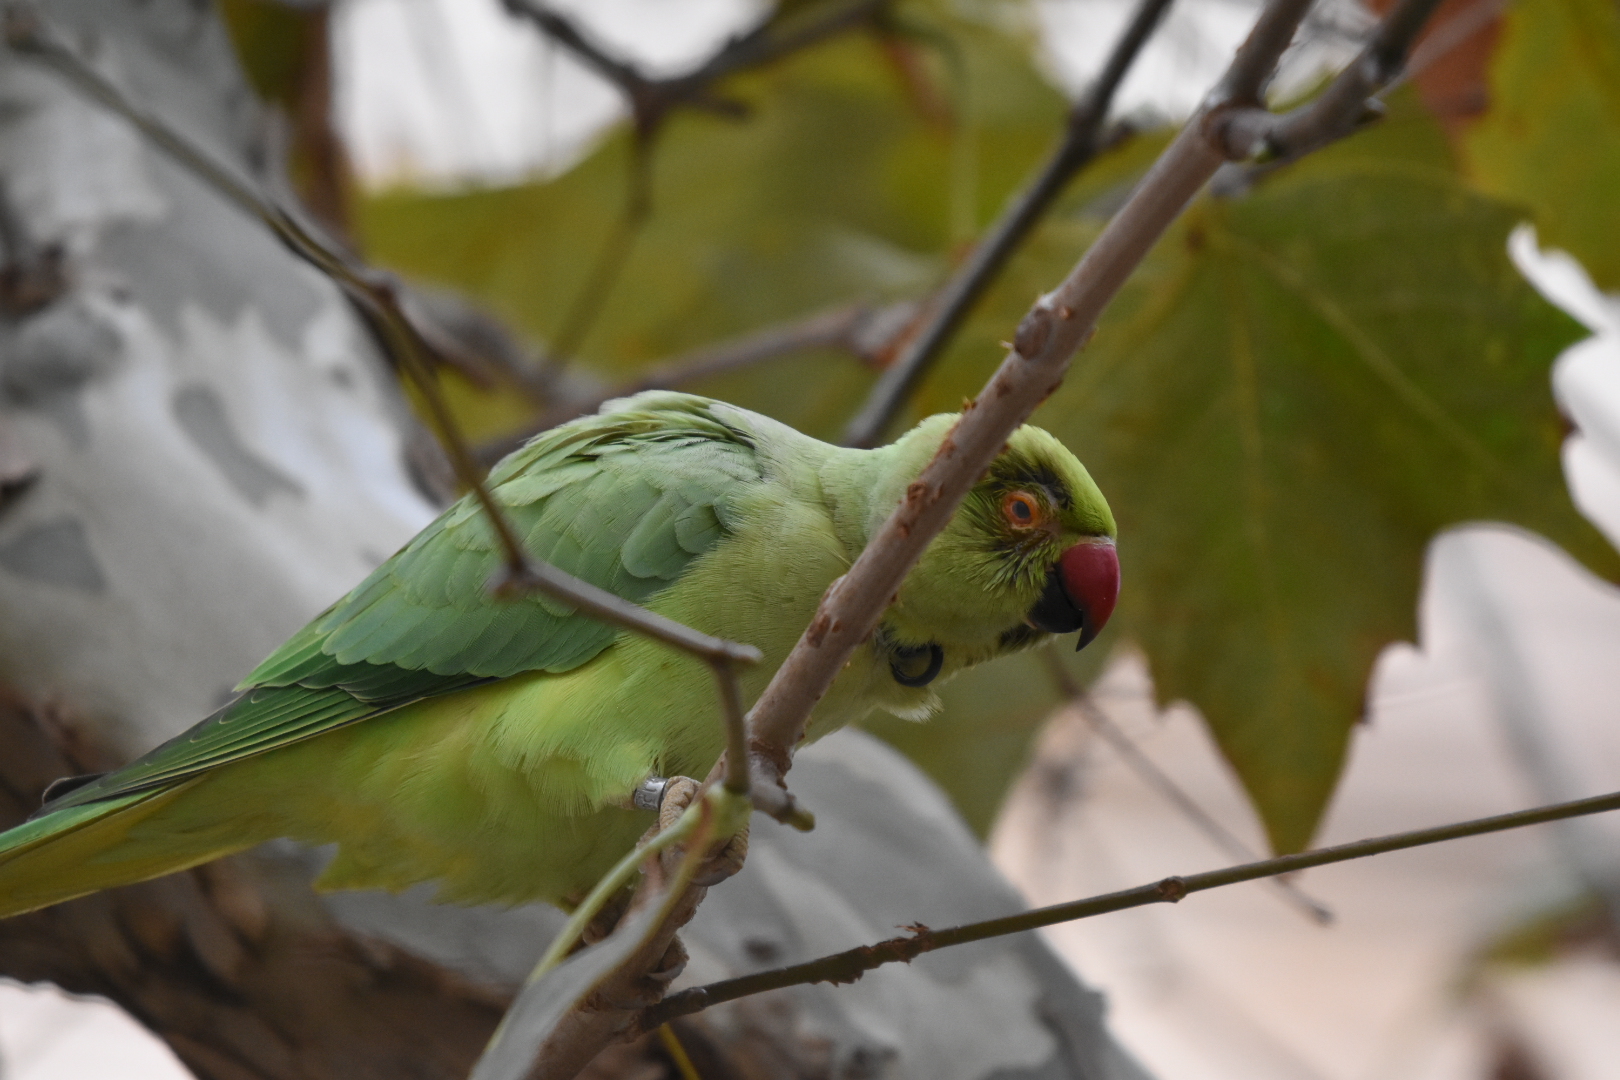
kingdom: Animalia
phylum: Chordata
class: Aves
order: Psittaciformes
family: Psittacidae
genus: Psittacula
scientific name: Psittacula krameri
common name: Rose-ringed parakeet
